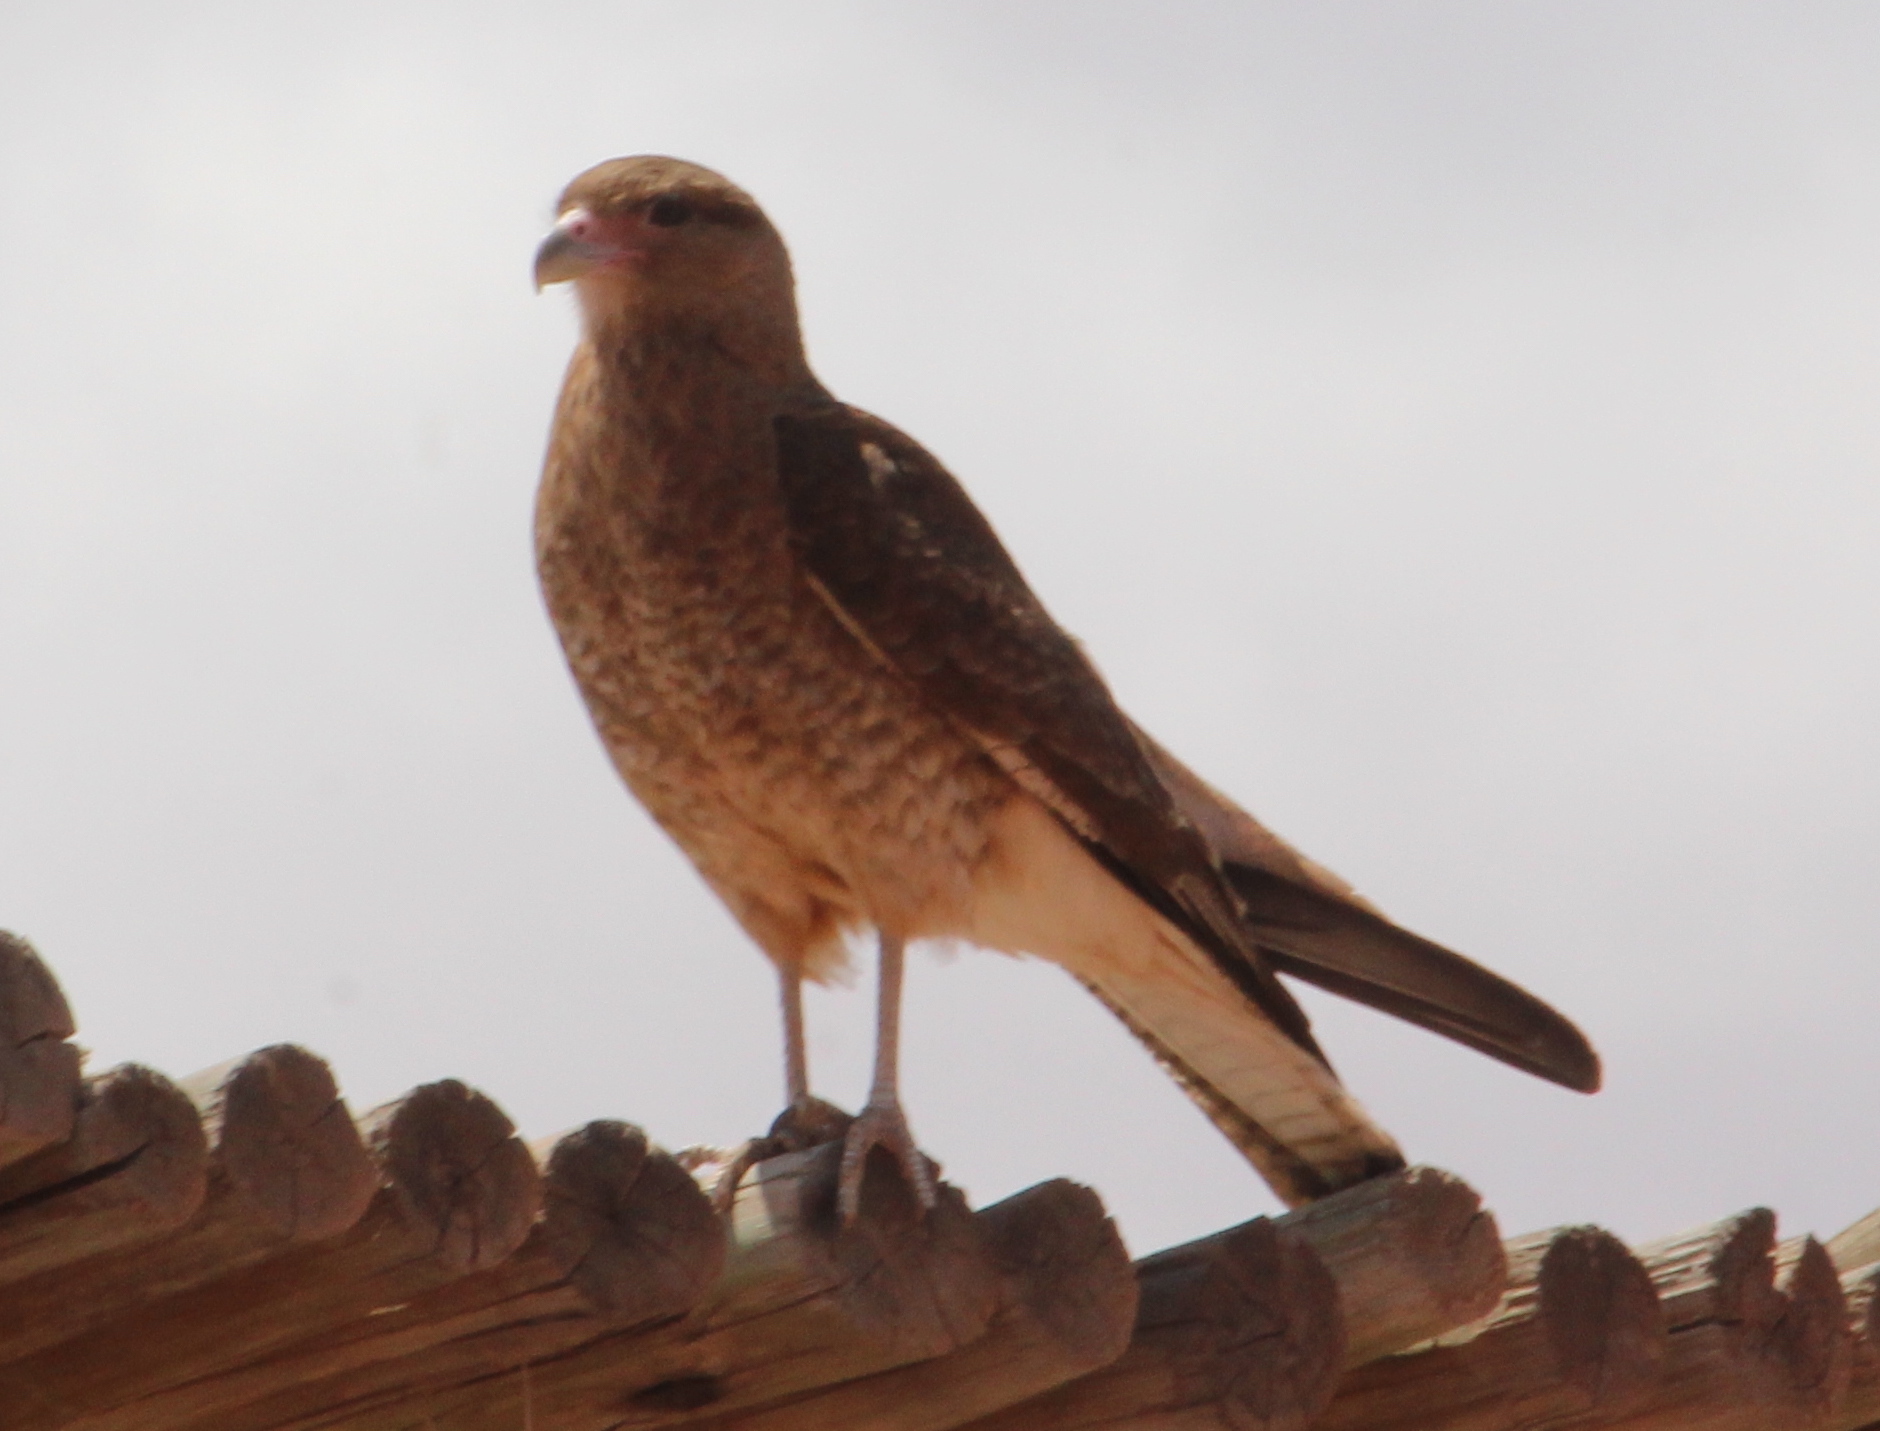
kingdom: Animalia
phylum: Chordata
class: Aves
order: Falconiformes
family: Falconidae
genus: Daptrius
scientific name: Daptrius
